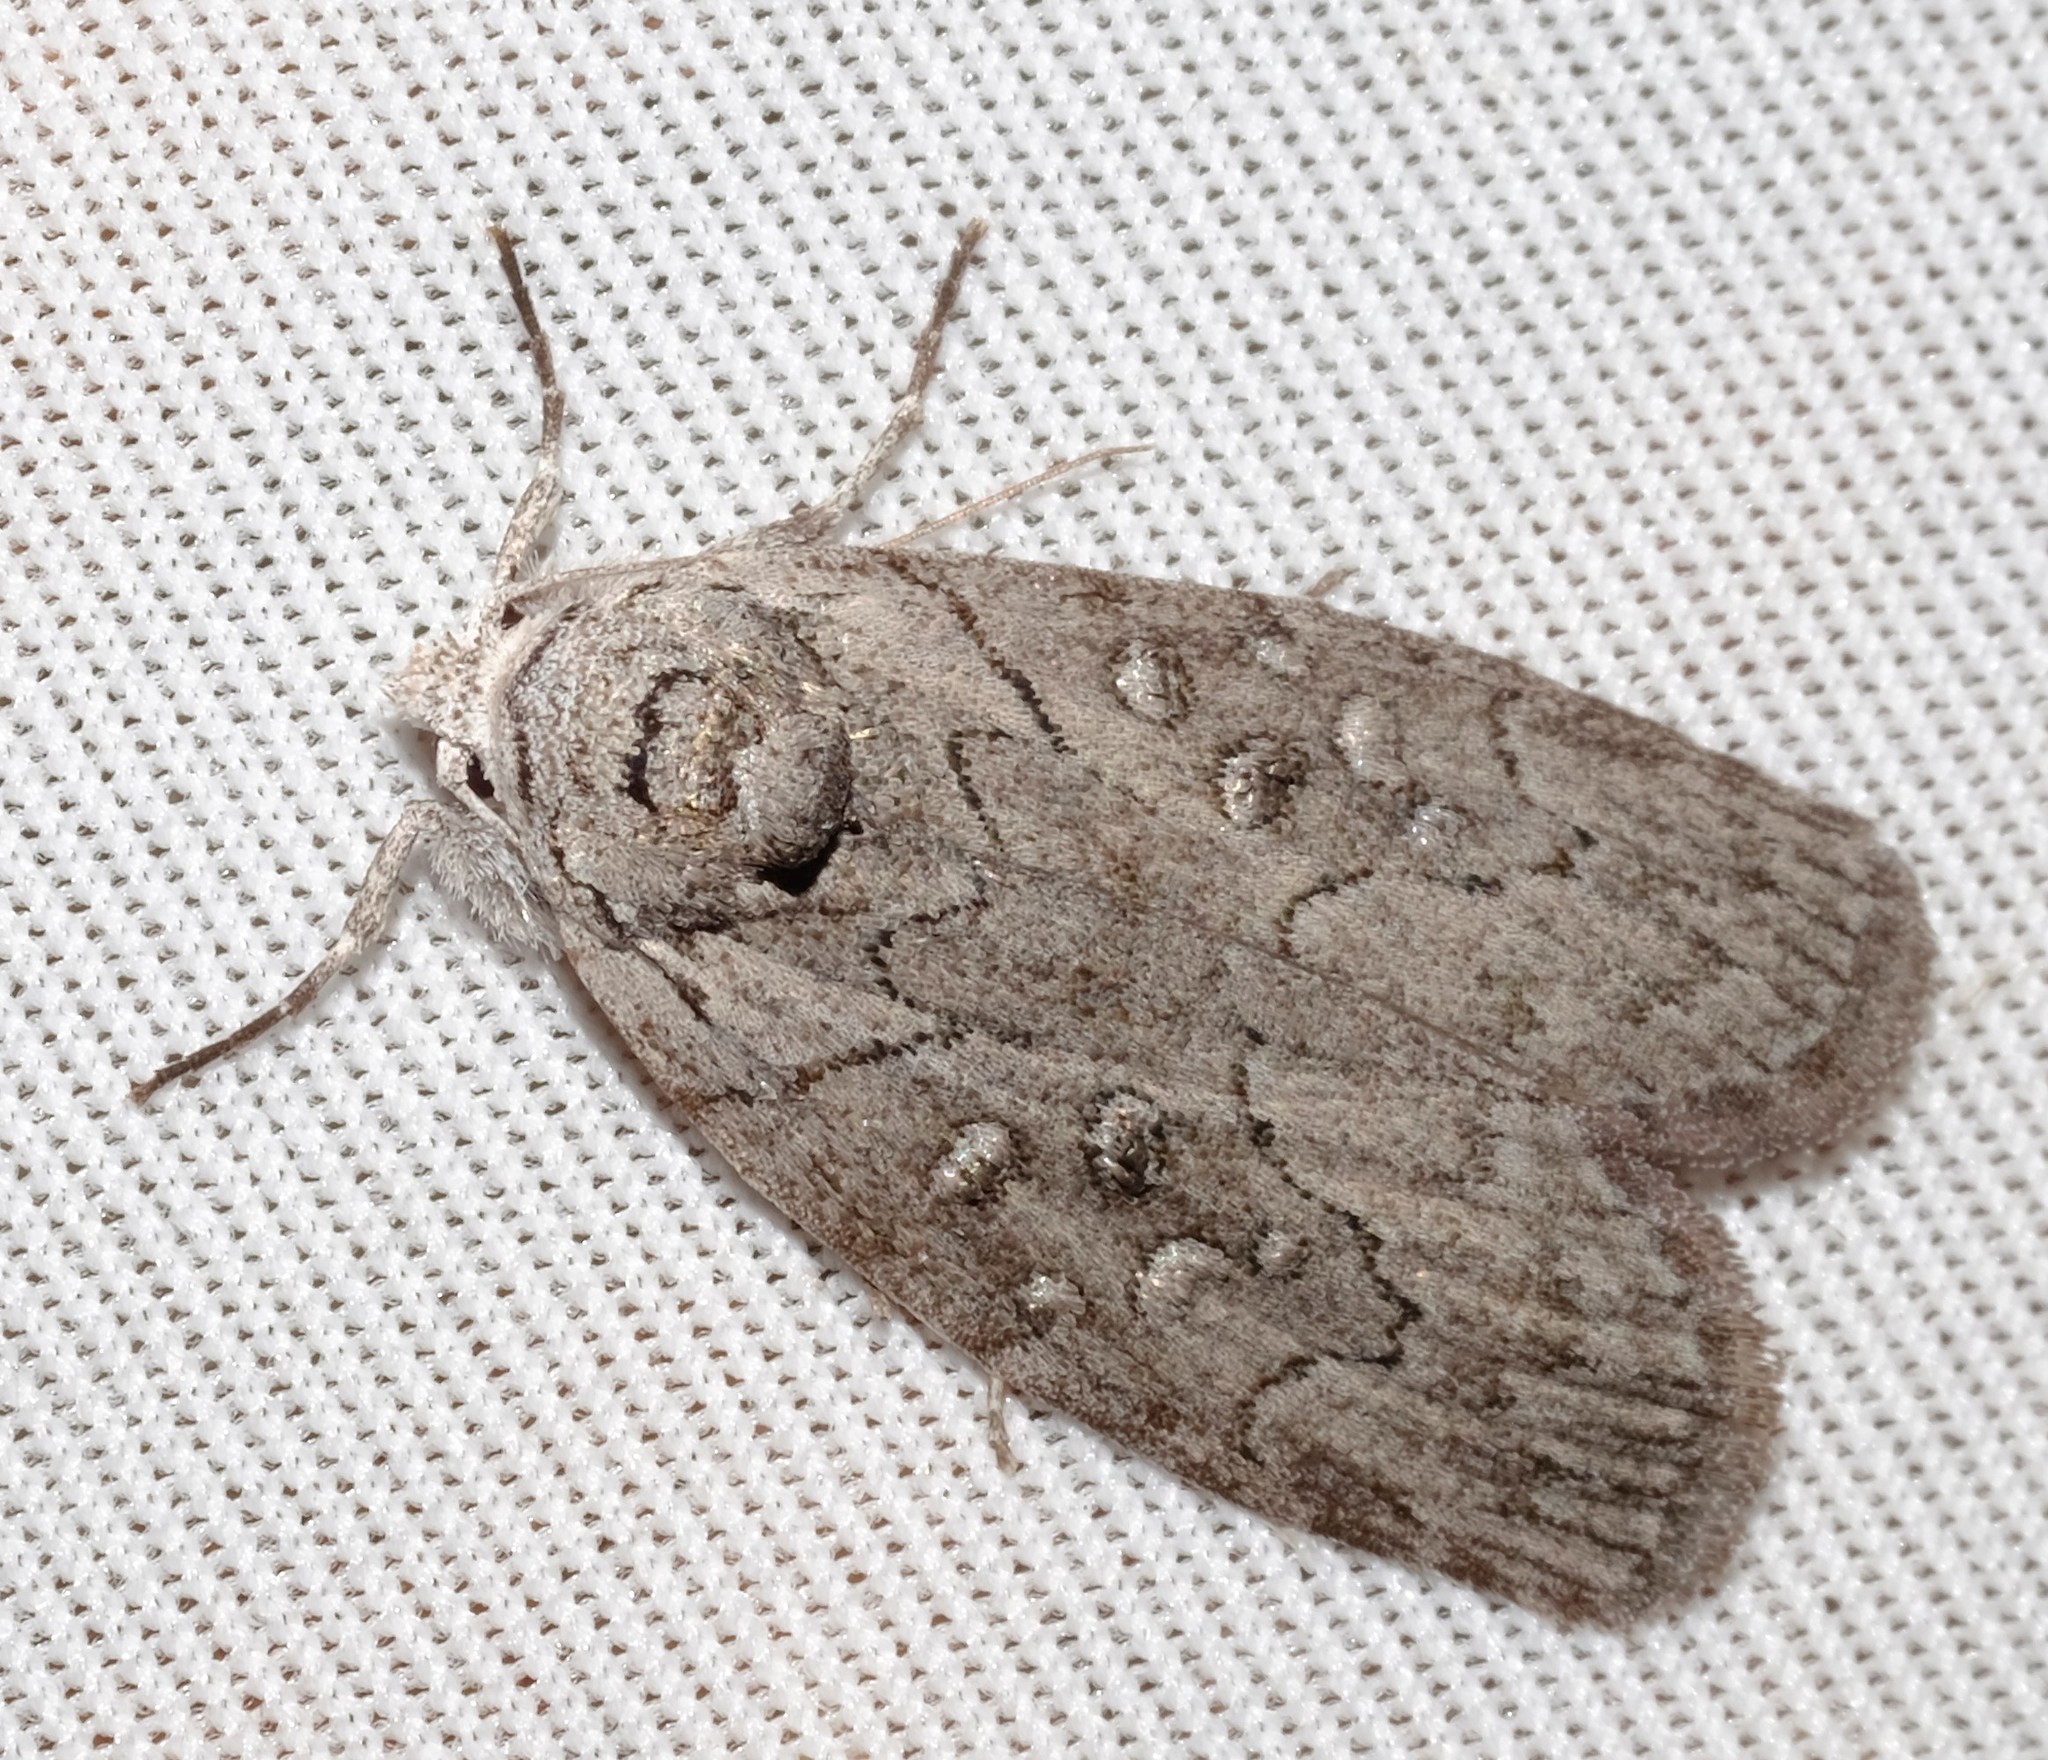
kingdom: Animalia
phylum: Arthropoda
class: Insecta
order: Lepidoptera
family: Nolidae
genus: Elesma
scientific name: Elesma subglauca
